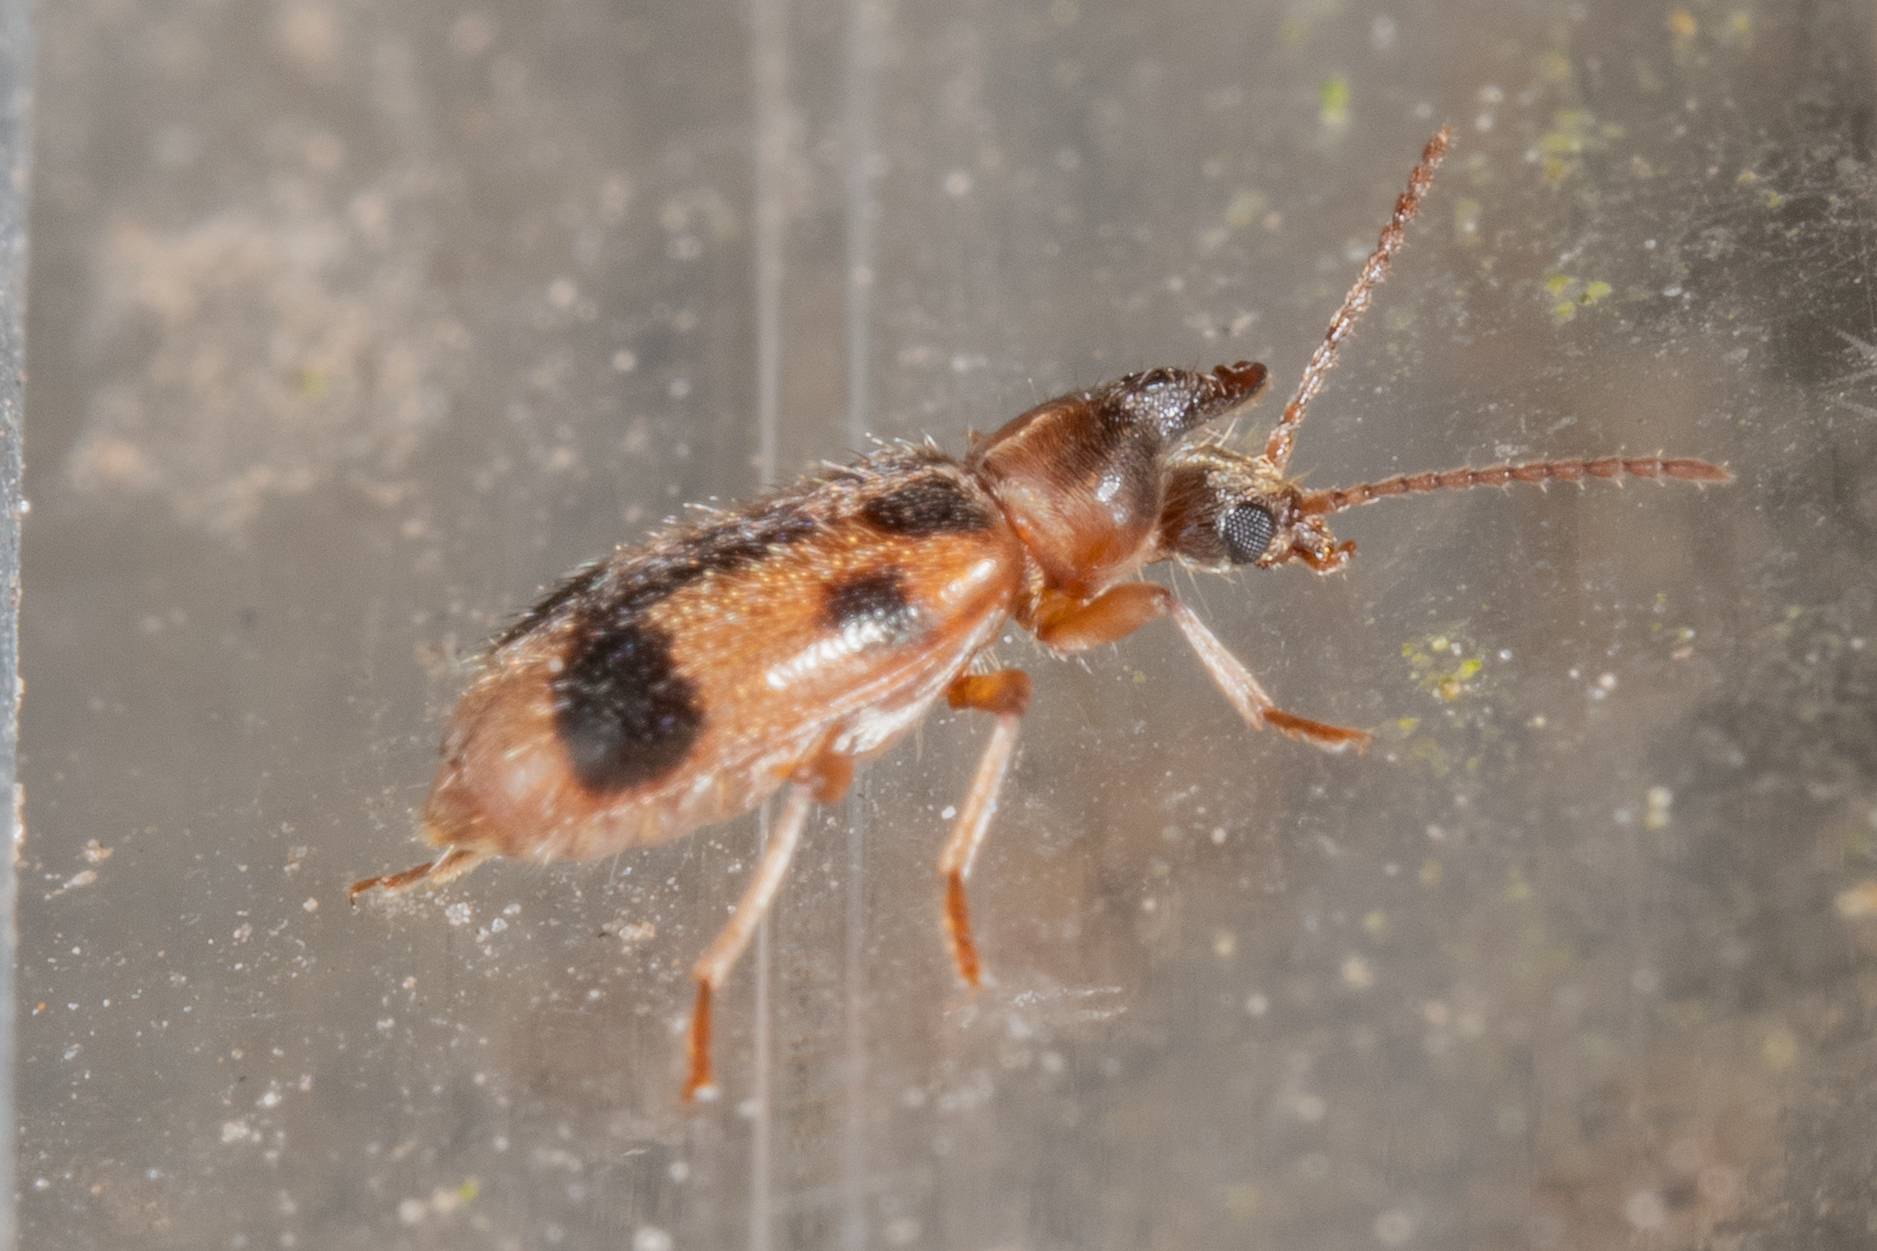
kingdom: Animalia
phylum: Arthropoda
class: Insecta
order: Coleoptera
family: Anthicidae
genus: Notoxus
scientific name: Notoxus monoceros
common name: Monoceros beetle
